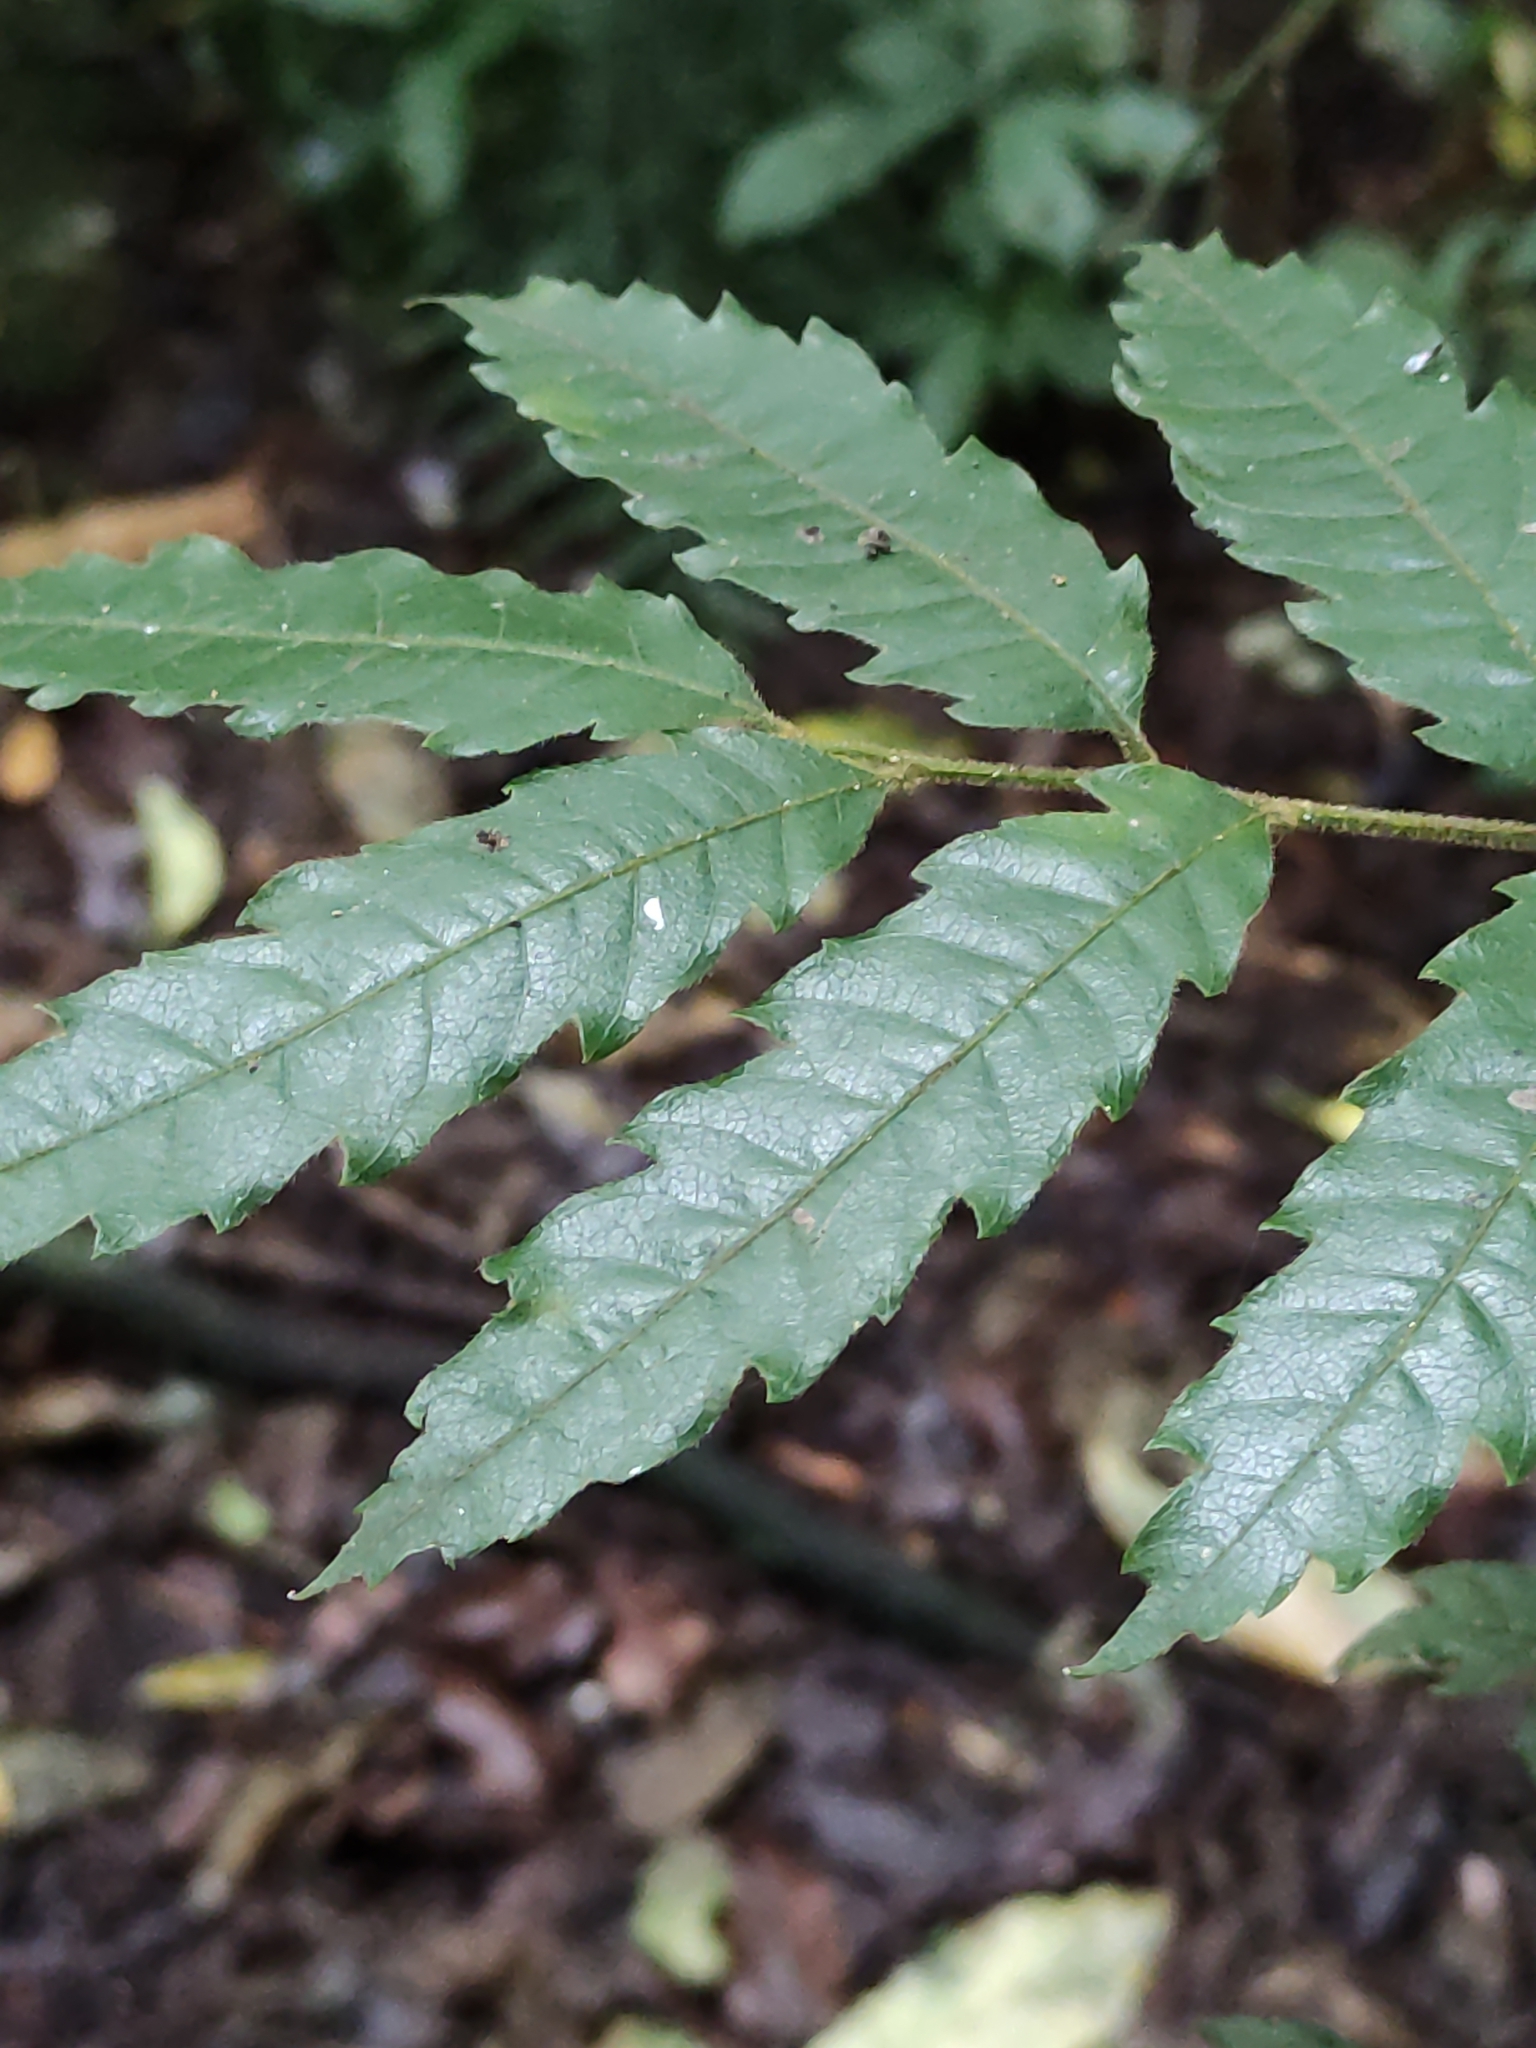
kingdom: Plantae
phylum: Tracheophyta
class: Magnoliopsida
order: Sapindales
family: Sapindaceae
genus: Alectryon
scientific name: Alectryon excelsus
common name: Three kings titoki
